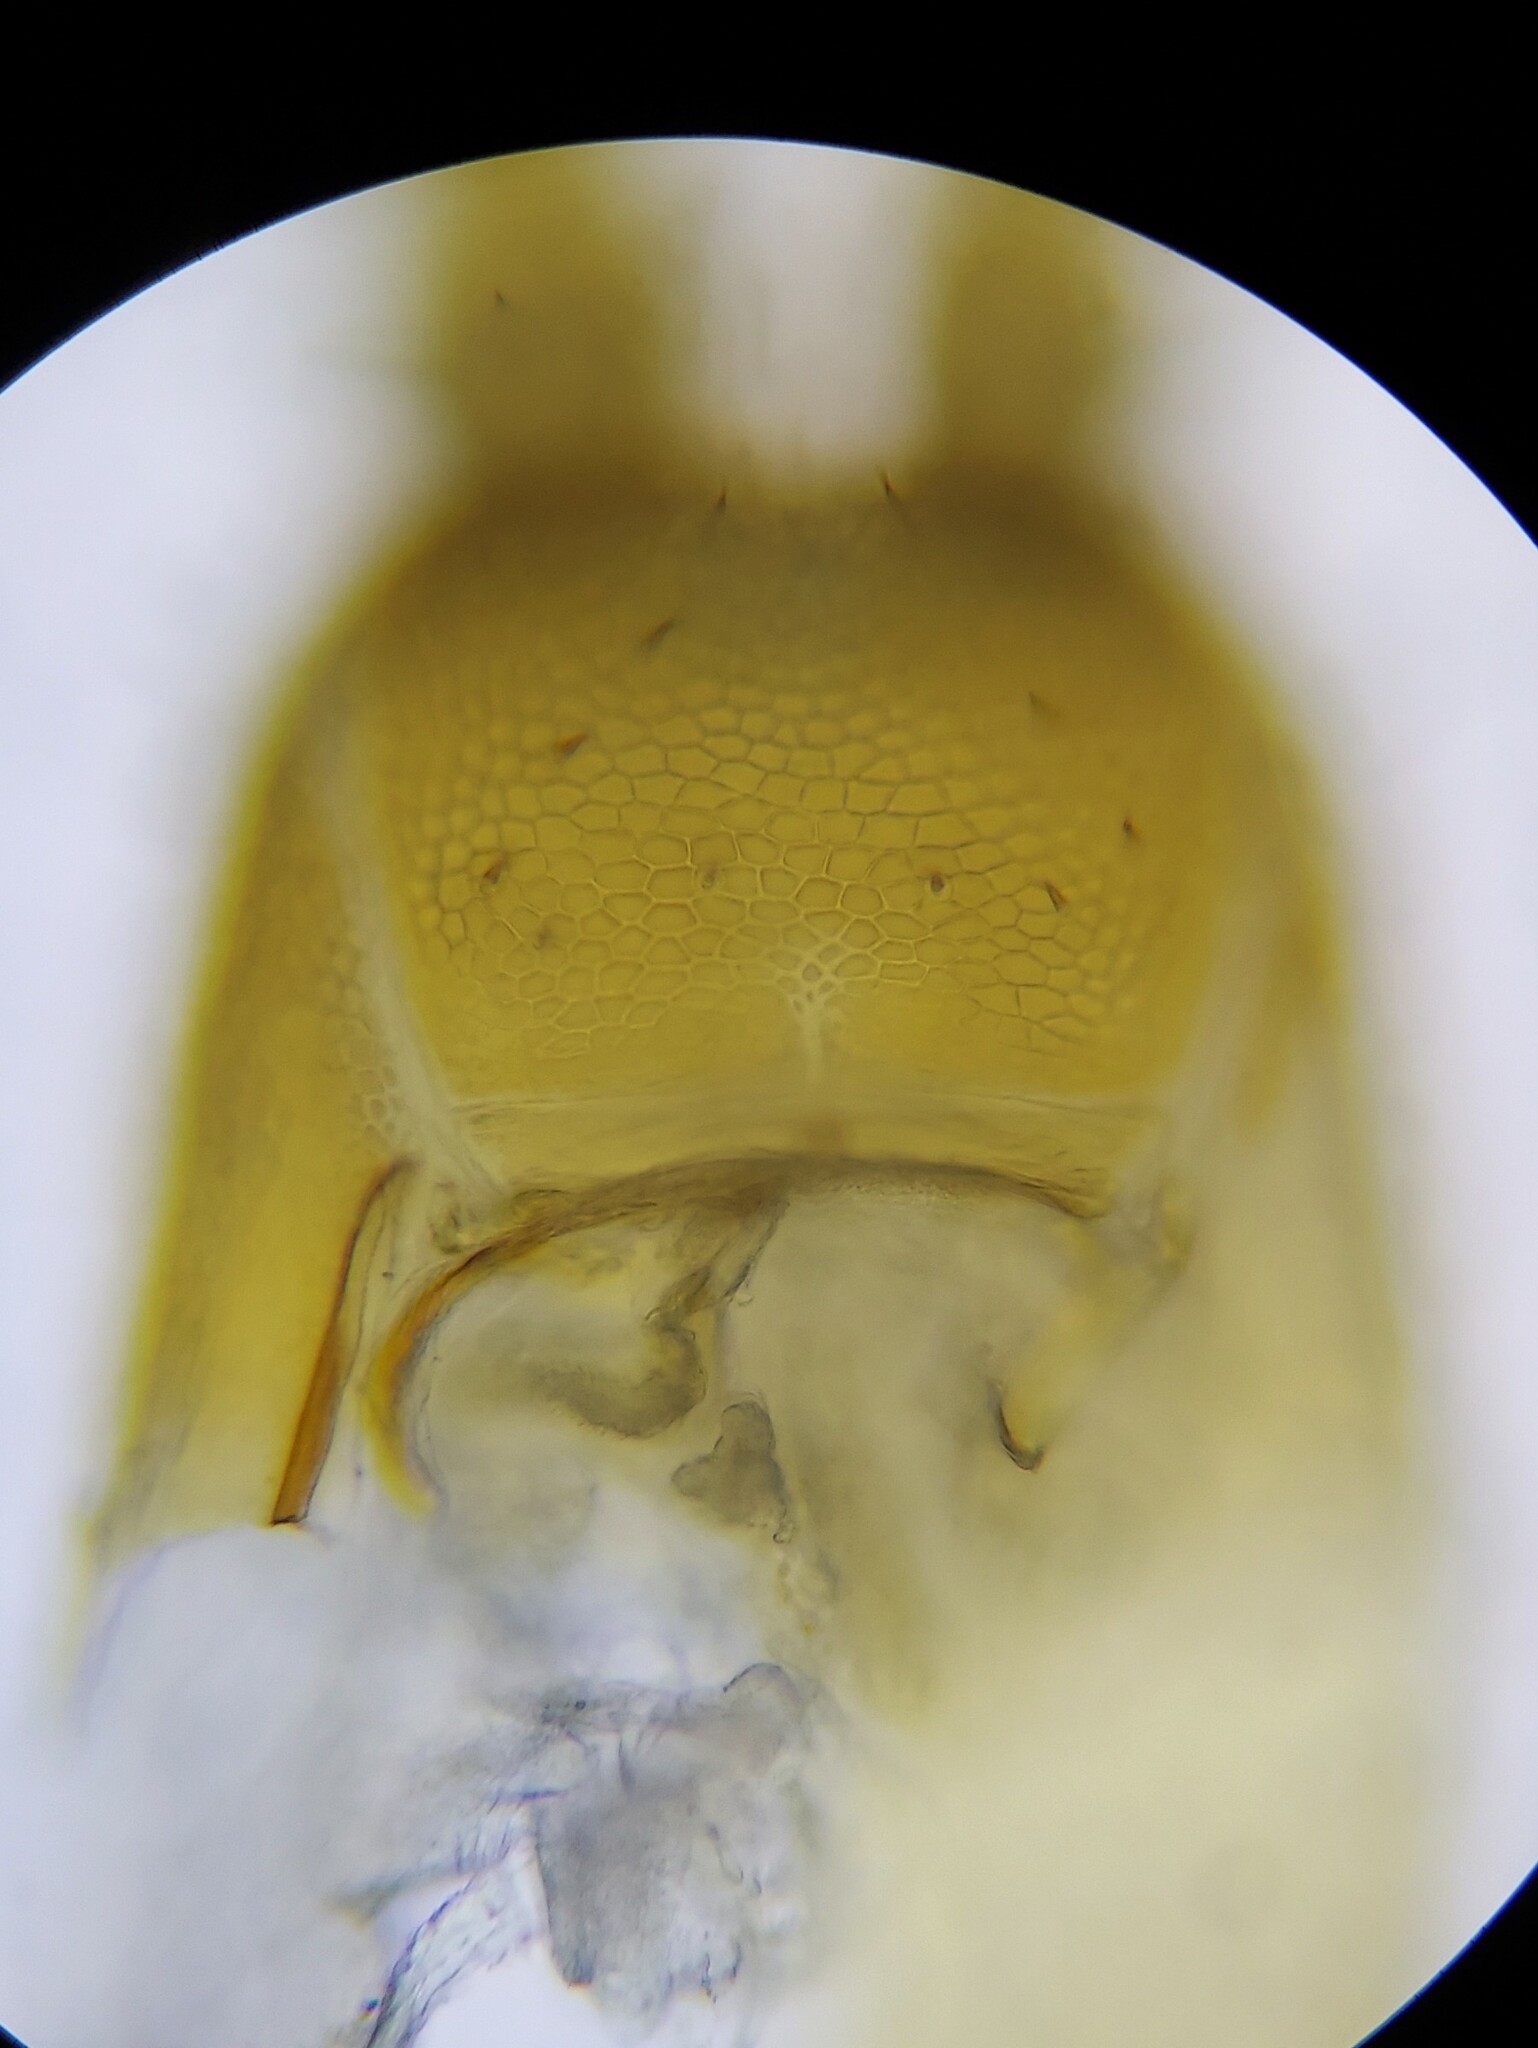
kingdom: Animalia
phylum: Arthropoda
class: Chilopoda
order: Geophilomorpha
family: Mecistocephalidae
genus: Nannarrup
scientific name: Nannarrup hoffmani
